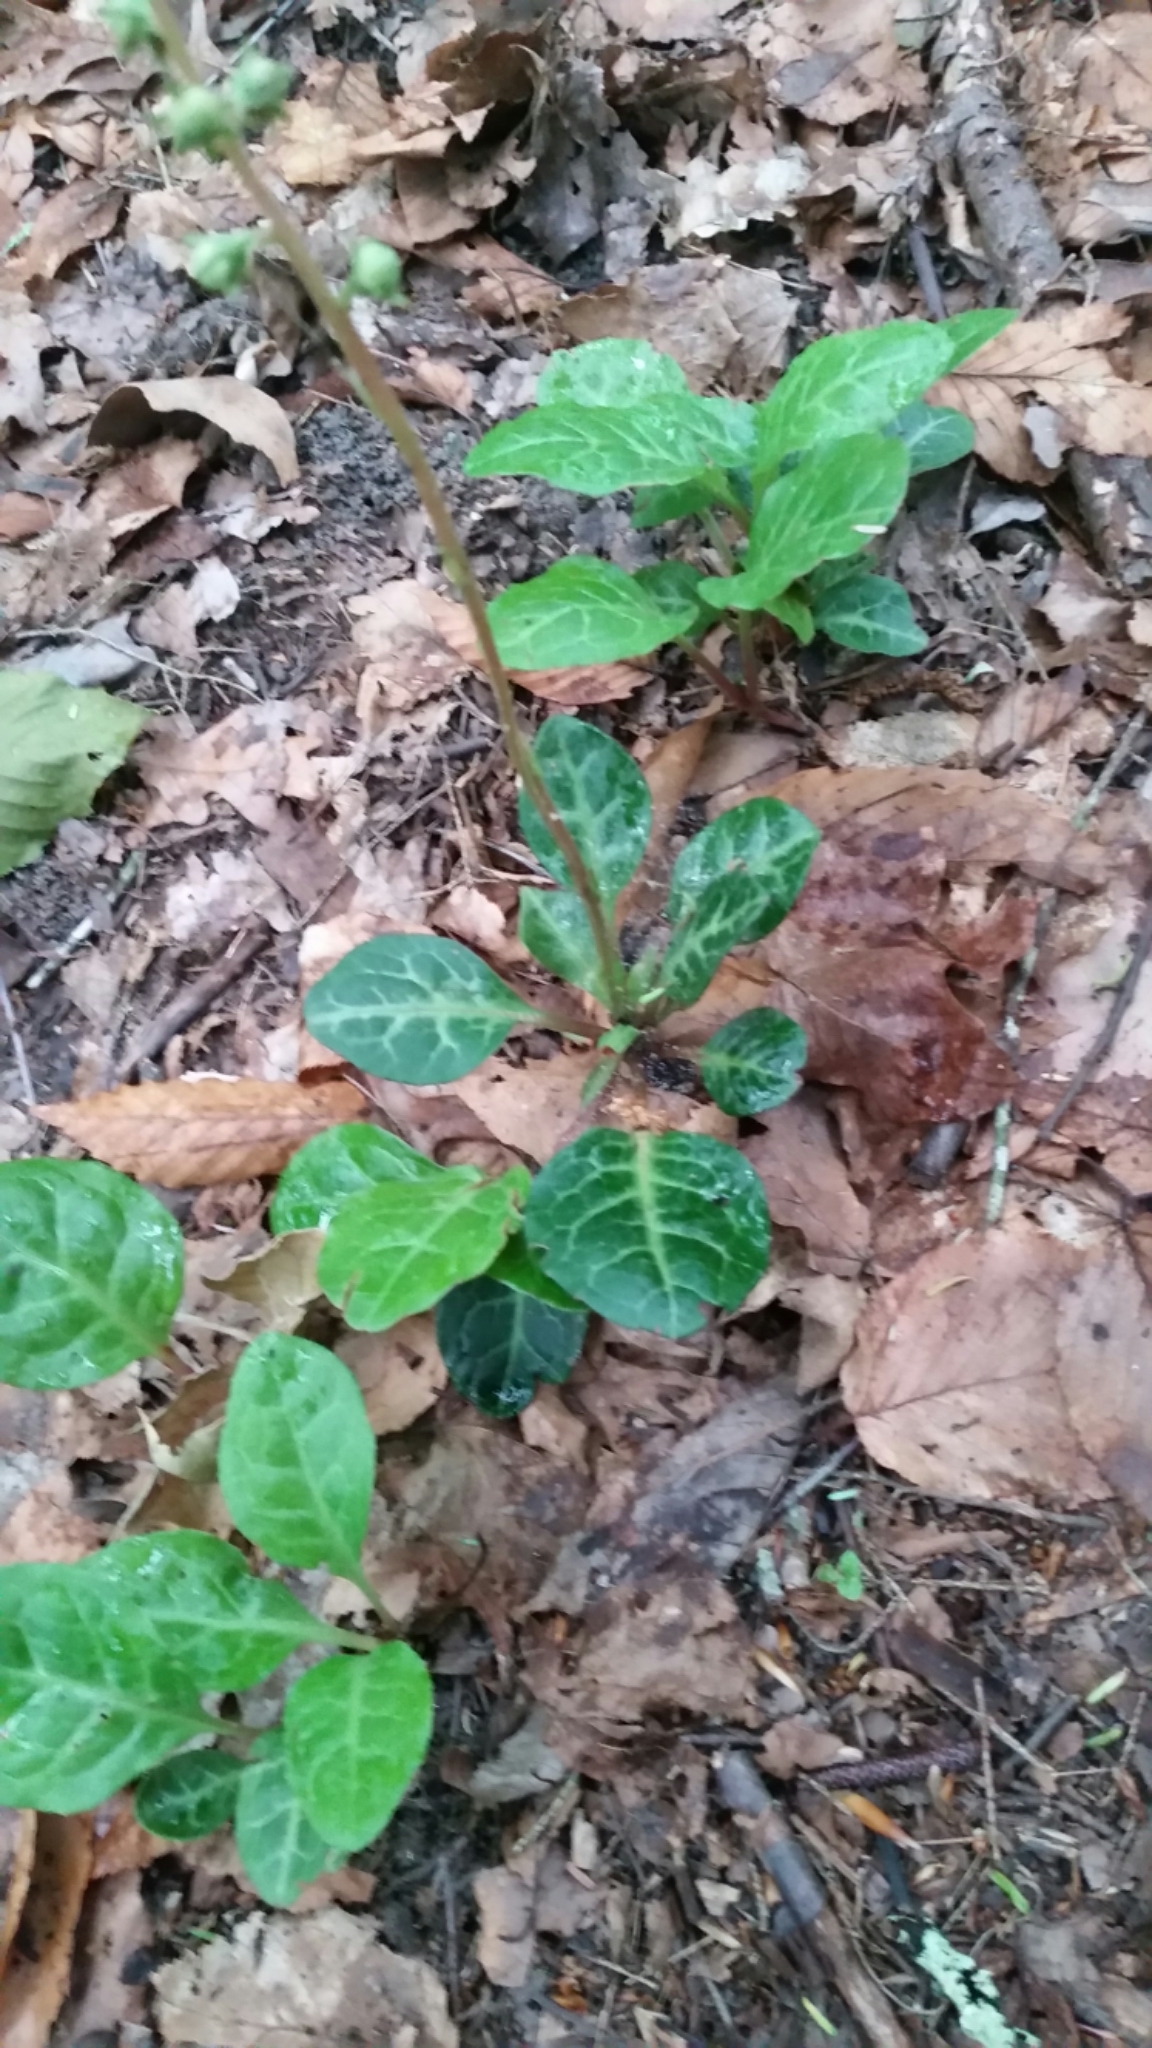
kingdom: Plantae
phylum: Tracheophyta
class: Magnoliopsida
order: Ericales
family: Ericaceae
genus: Pyrola
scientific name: Pyrola americana
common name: American wintergreen
